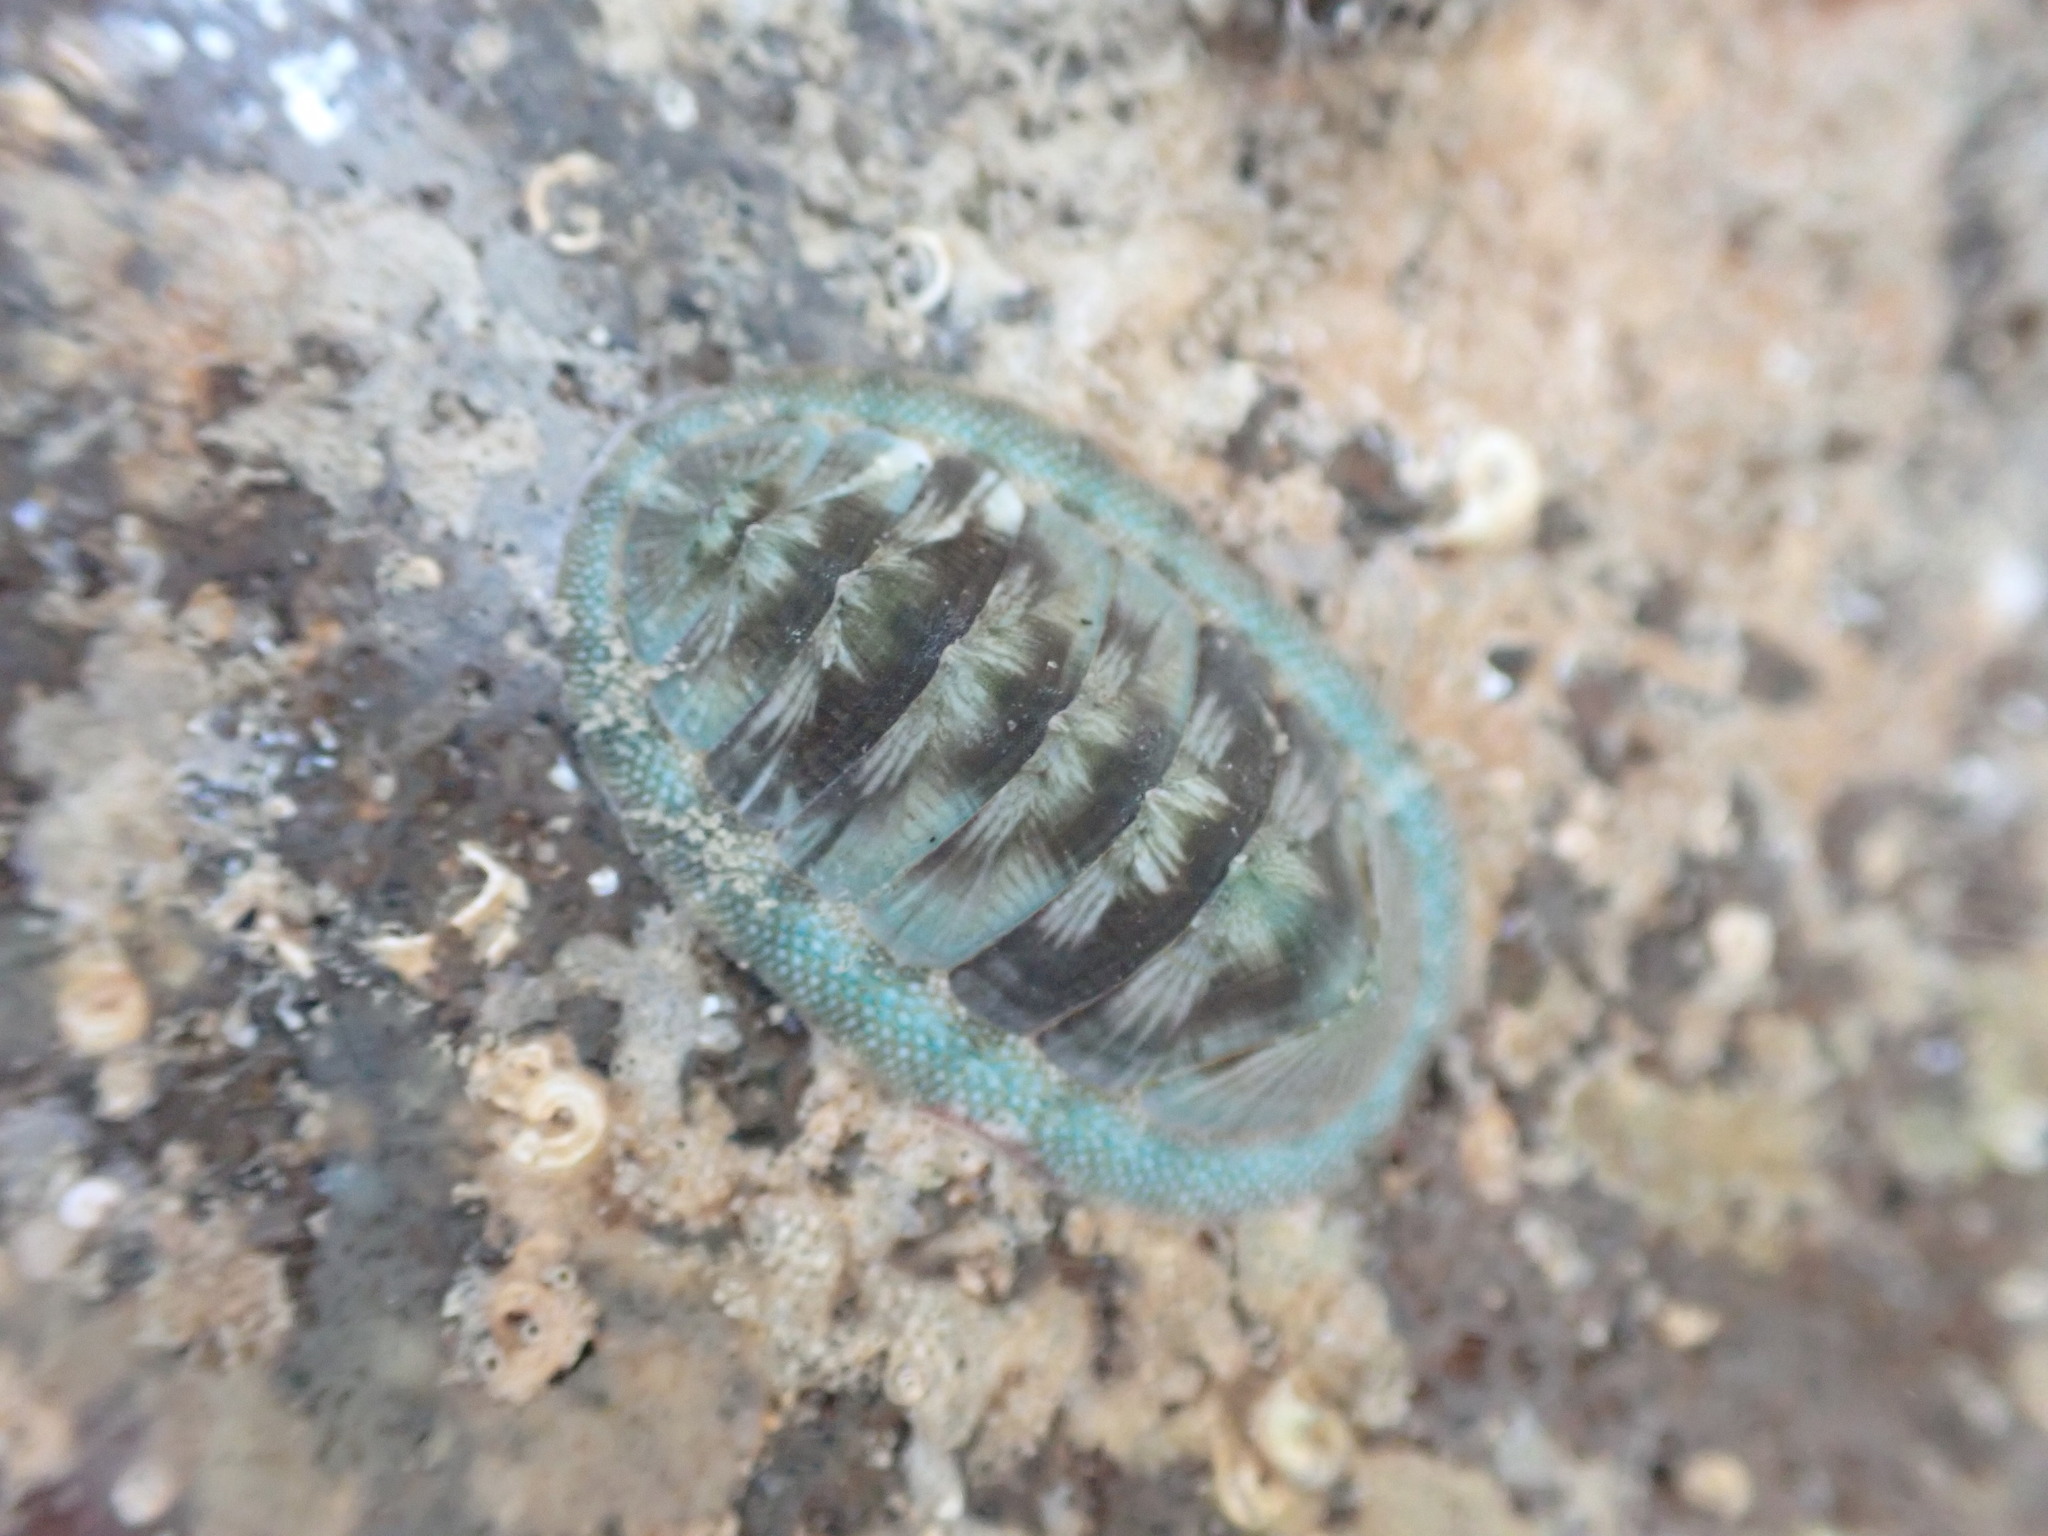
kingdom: Animalia
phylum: Mollusca
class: Polyplacophora
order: Chitonida
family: Chitonidae
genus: Rhyssoplax
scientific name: Rhyssoplax aerea
